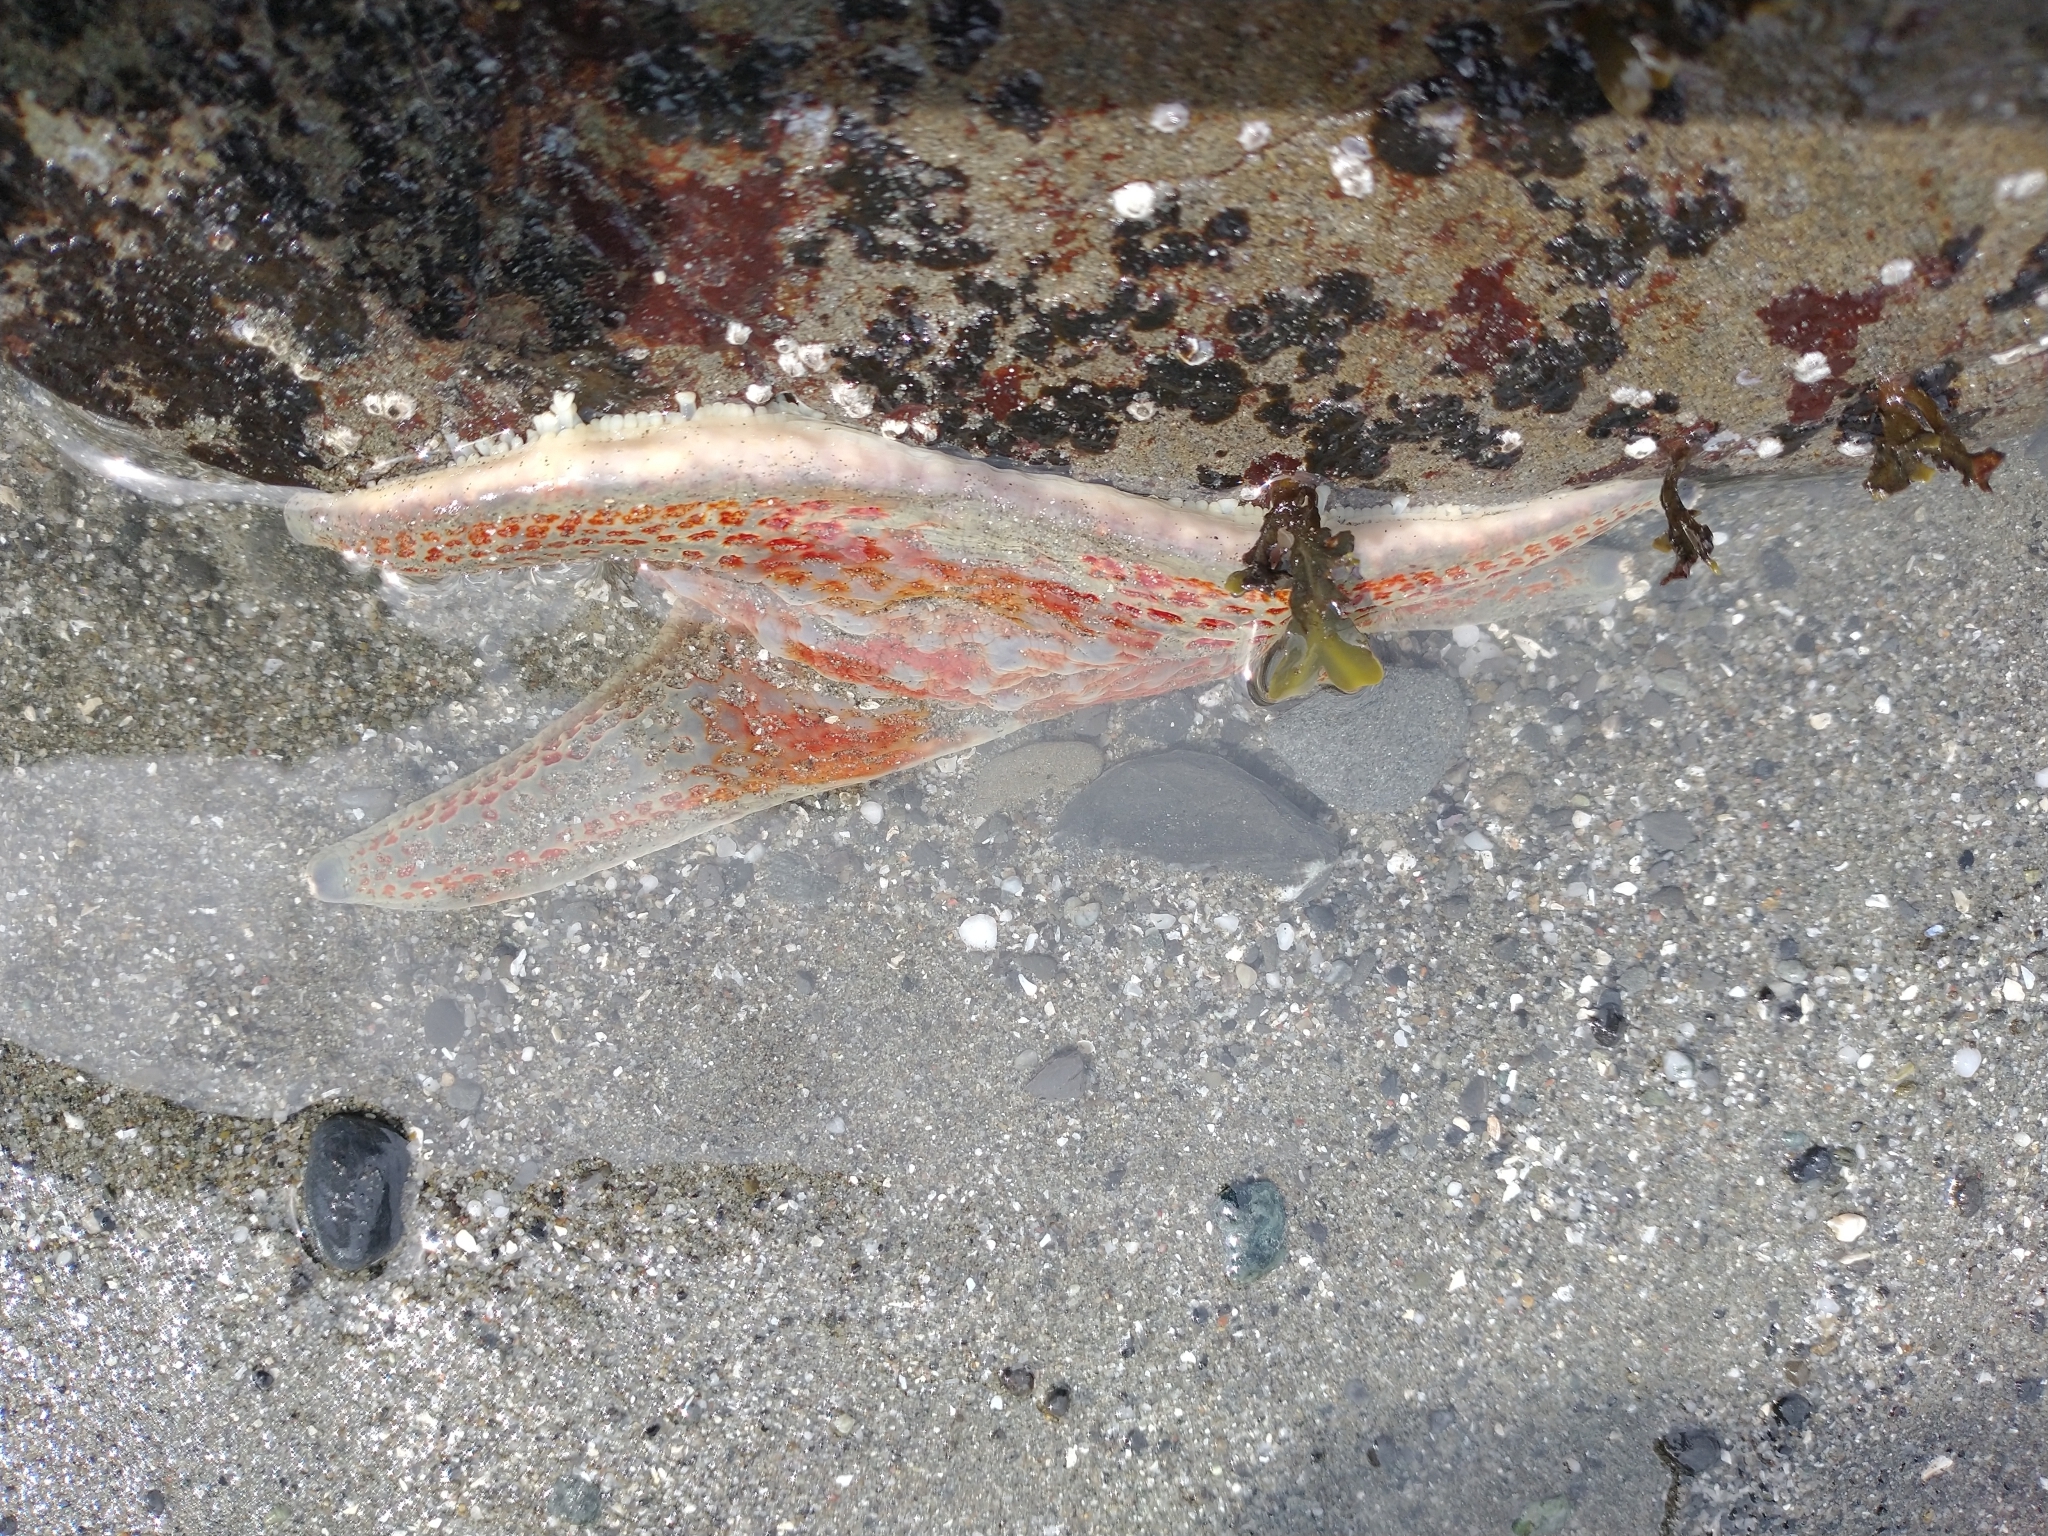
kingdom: Animalia
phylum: Echinodermata
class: Asteroidea
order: Valvatida
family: Asteropseidae
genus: Dermasterias
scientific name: Dermasterias imbricata
